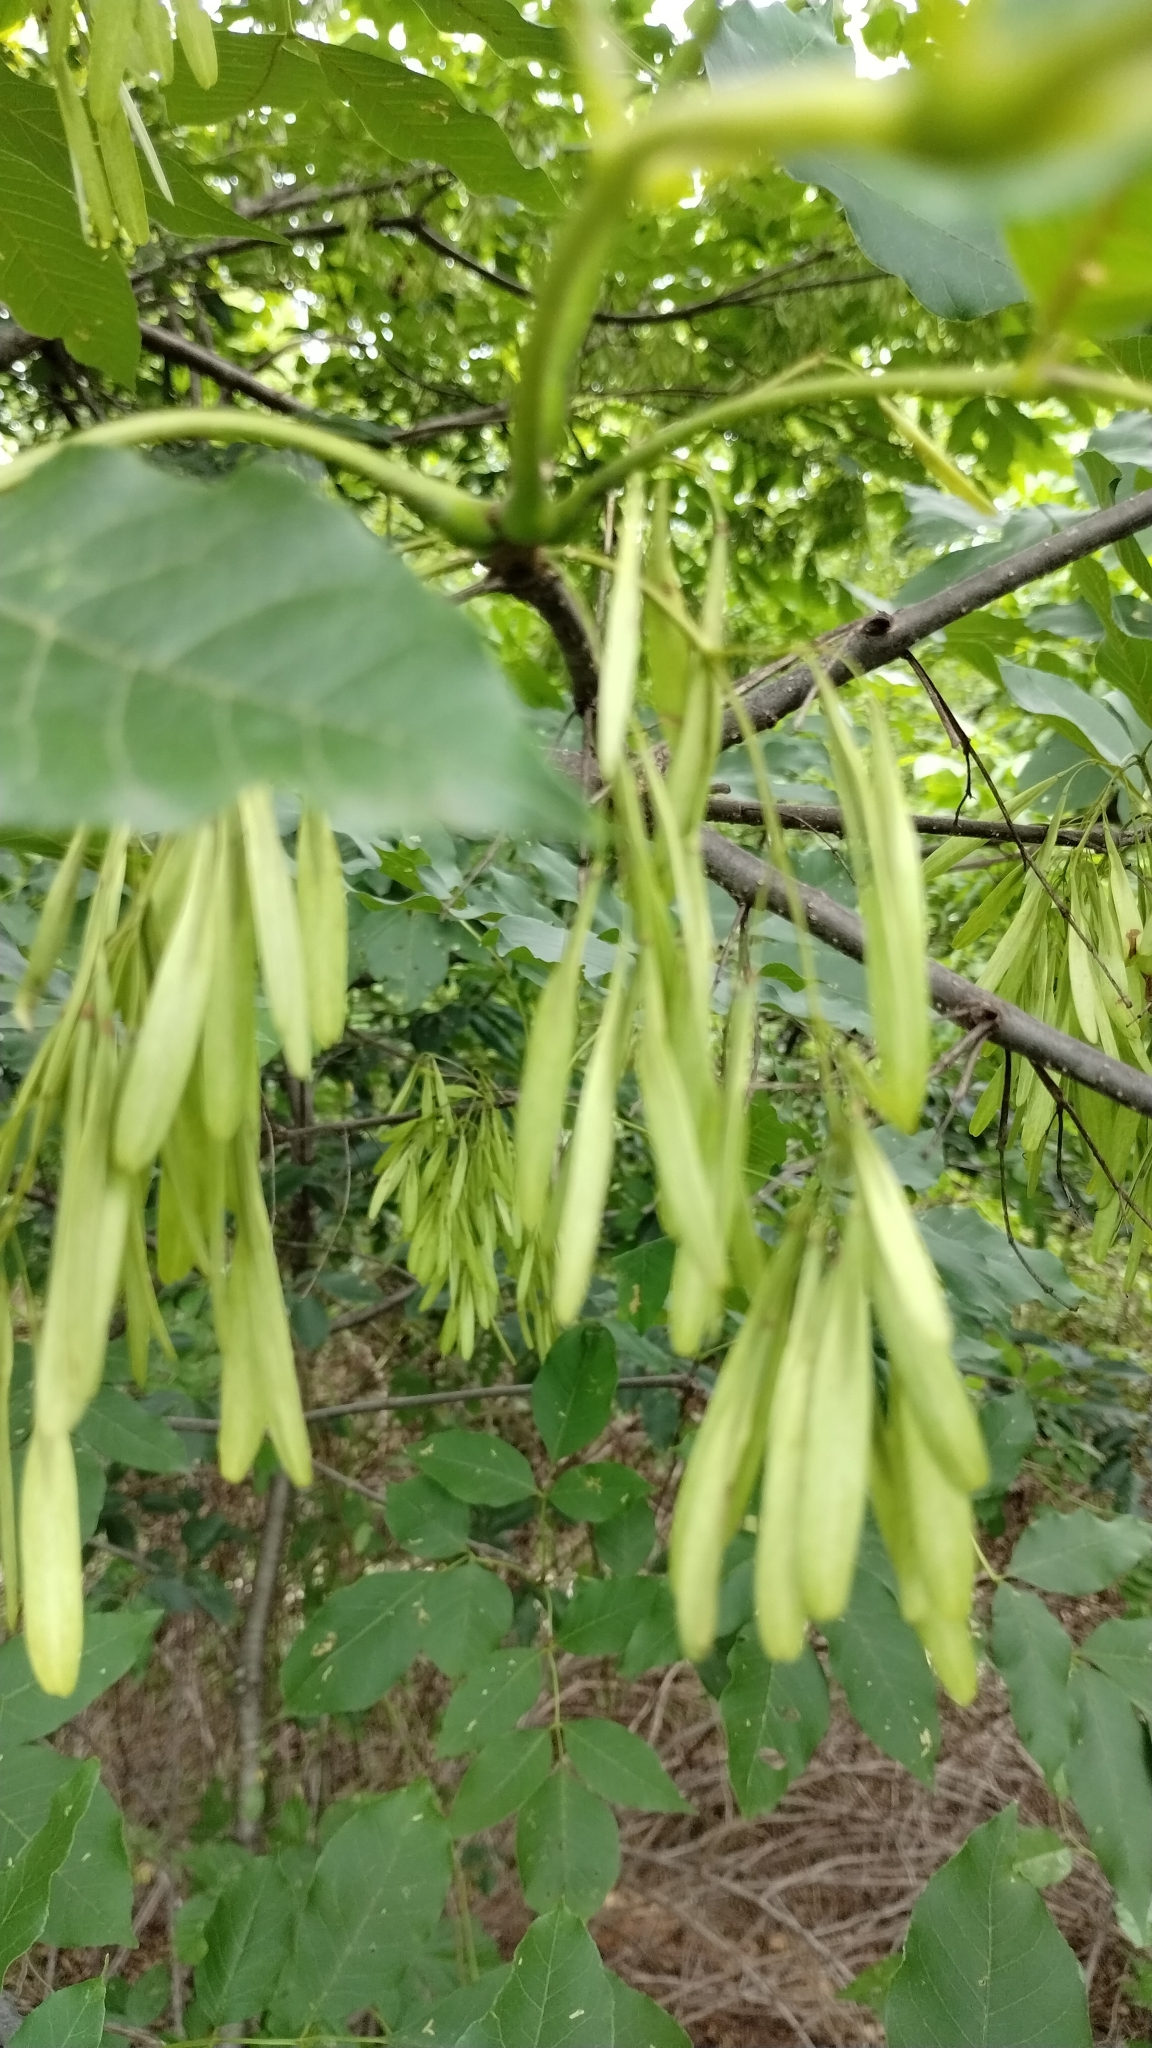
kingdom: Plantae
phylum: Tracheophyta
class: Magnoliopsida
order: Lamiales
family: Oleaceae
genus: Fraxinus
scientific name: Fraxinus pennsylvanica
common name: Green ash
